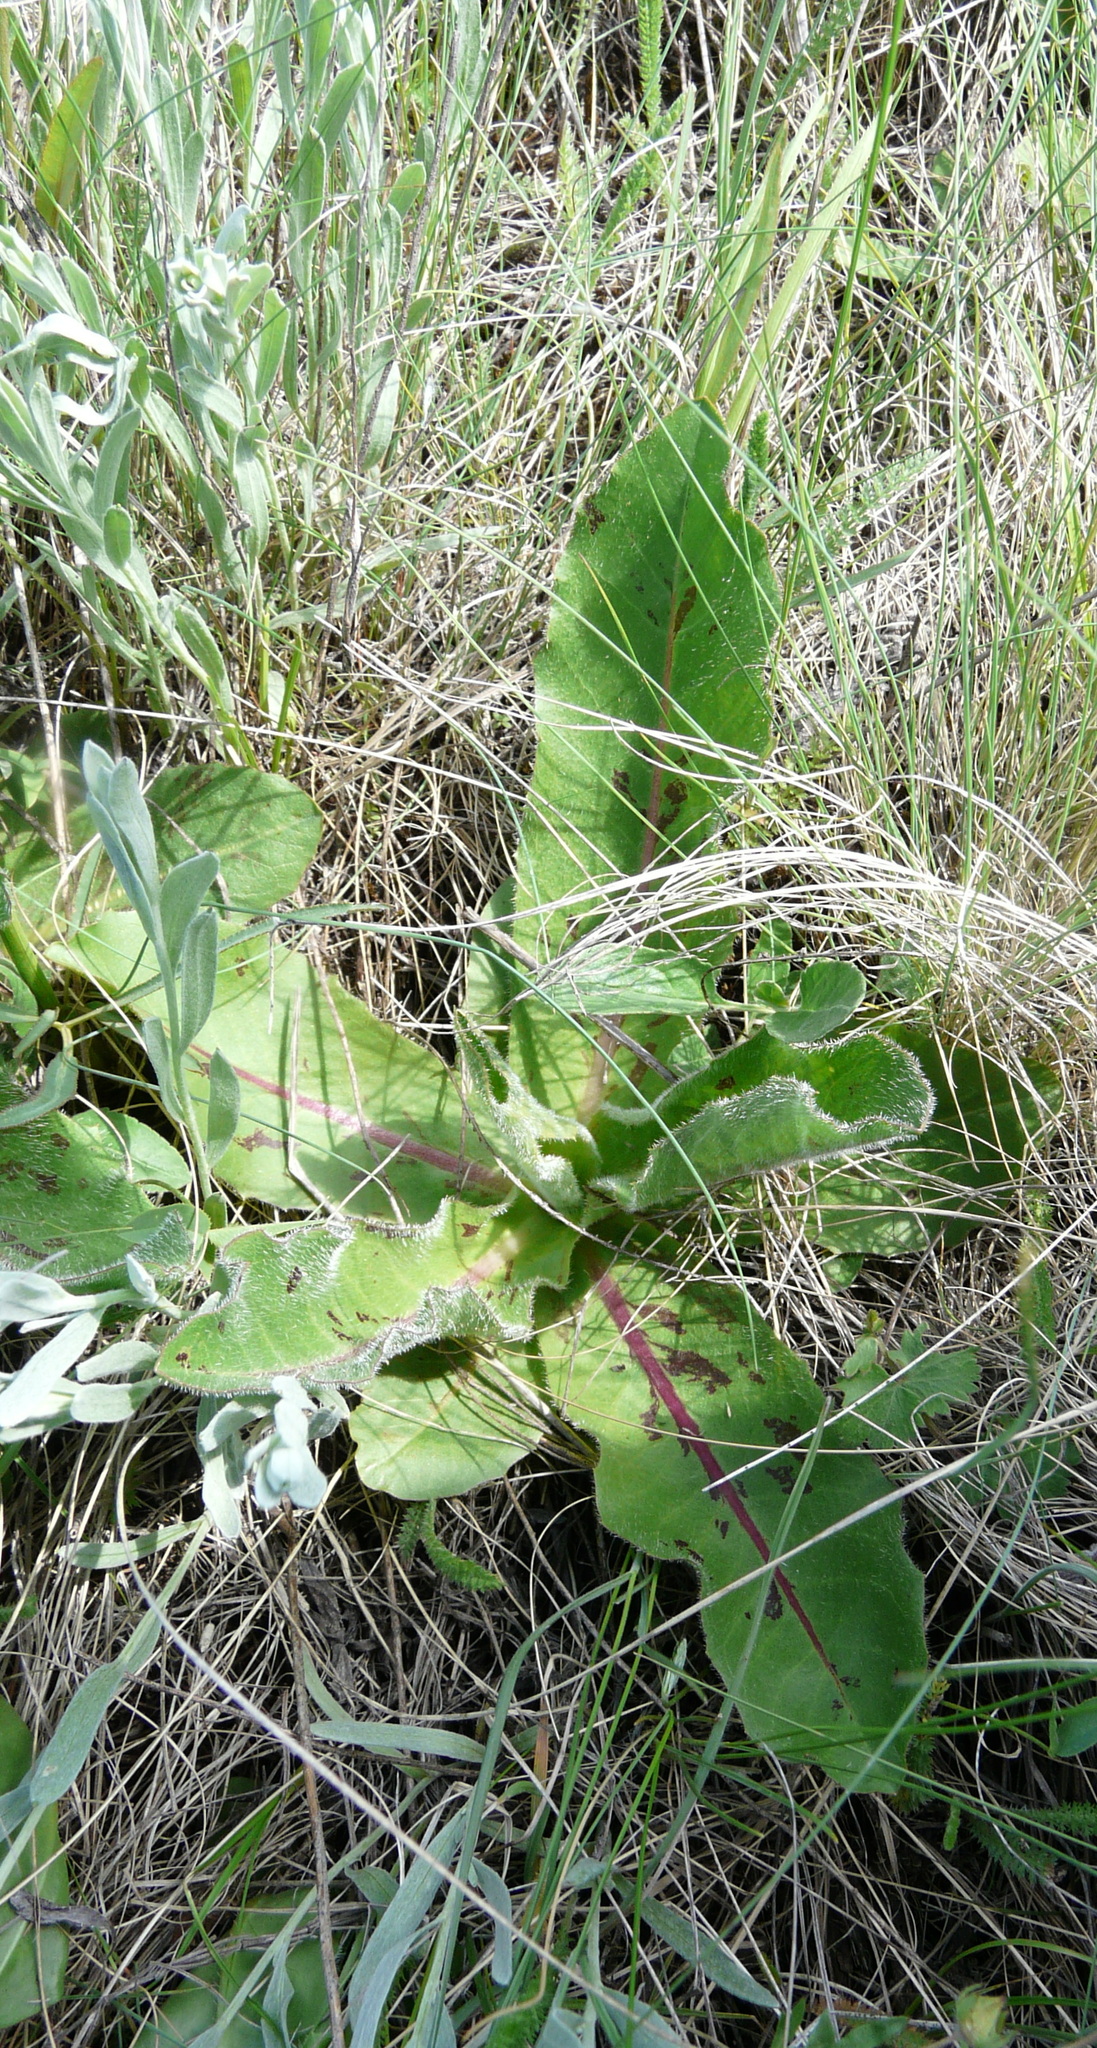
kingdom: Plantae
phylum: Tracheophyta
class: Magnoliopsida
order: Asterales
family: Asteraceae
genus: Trommsdorffia
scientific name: Trommsdorffia maculata
